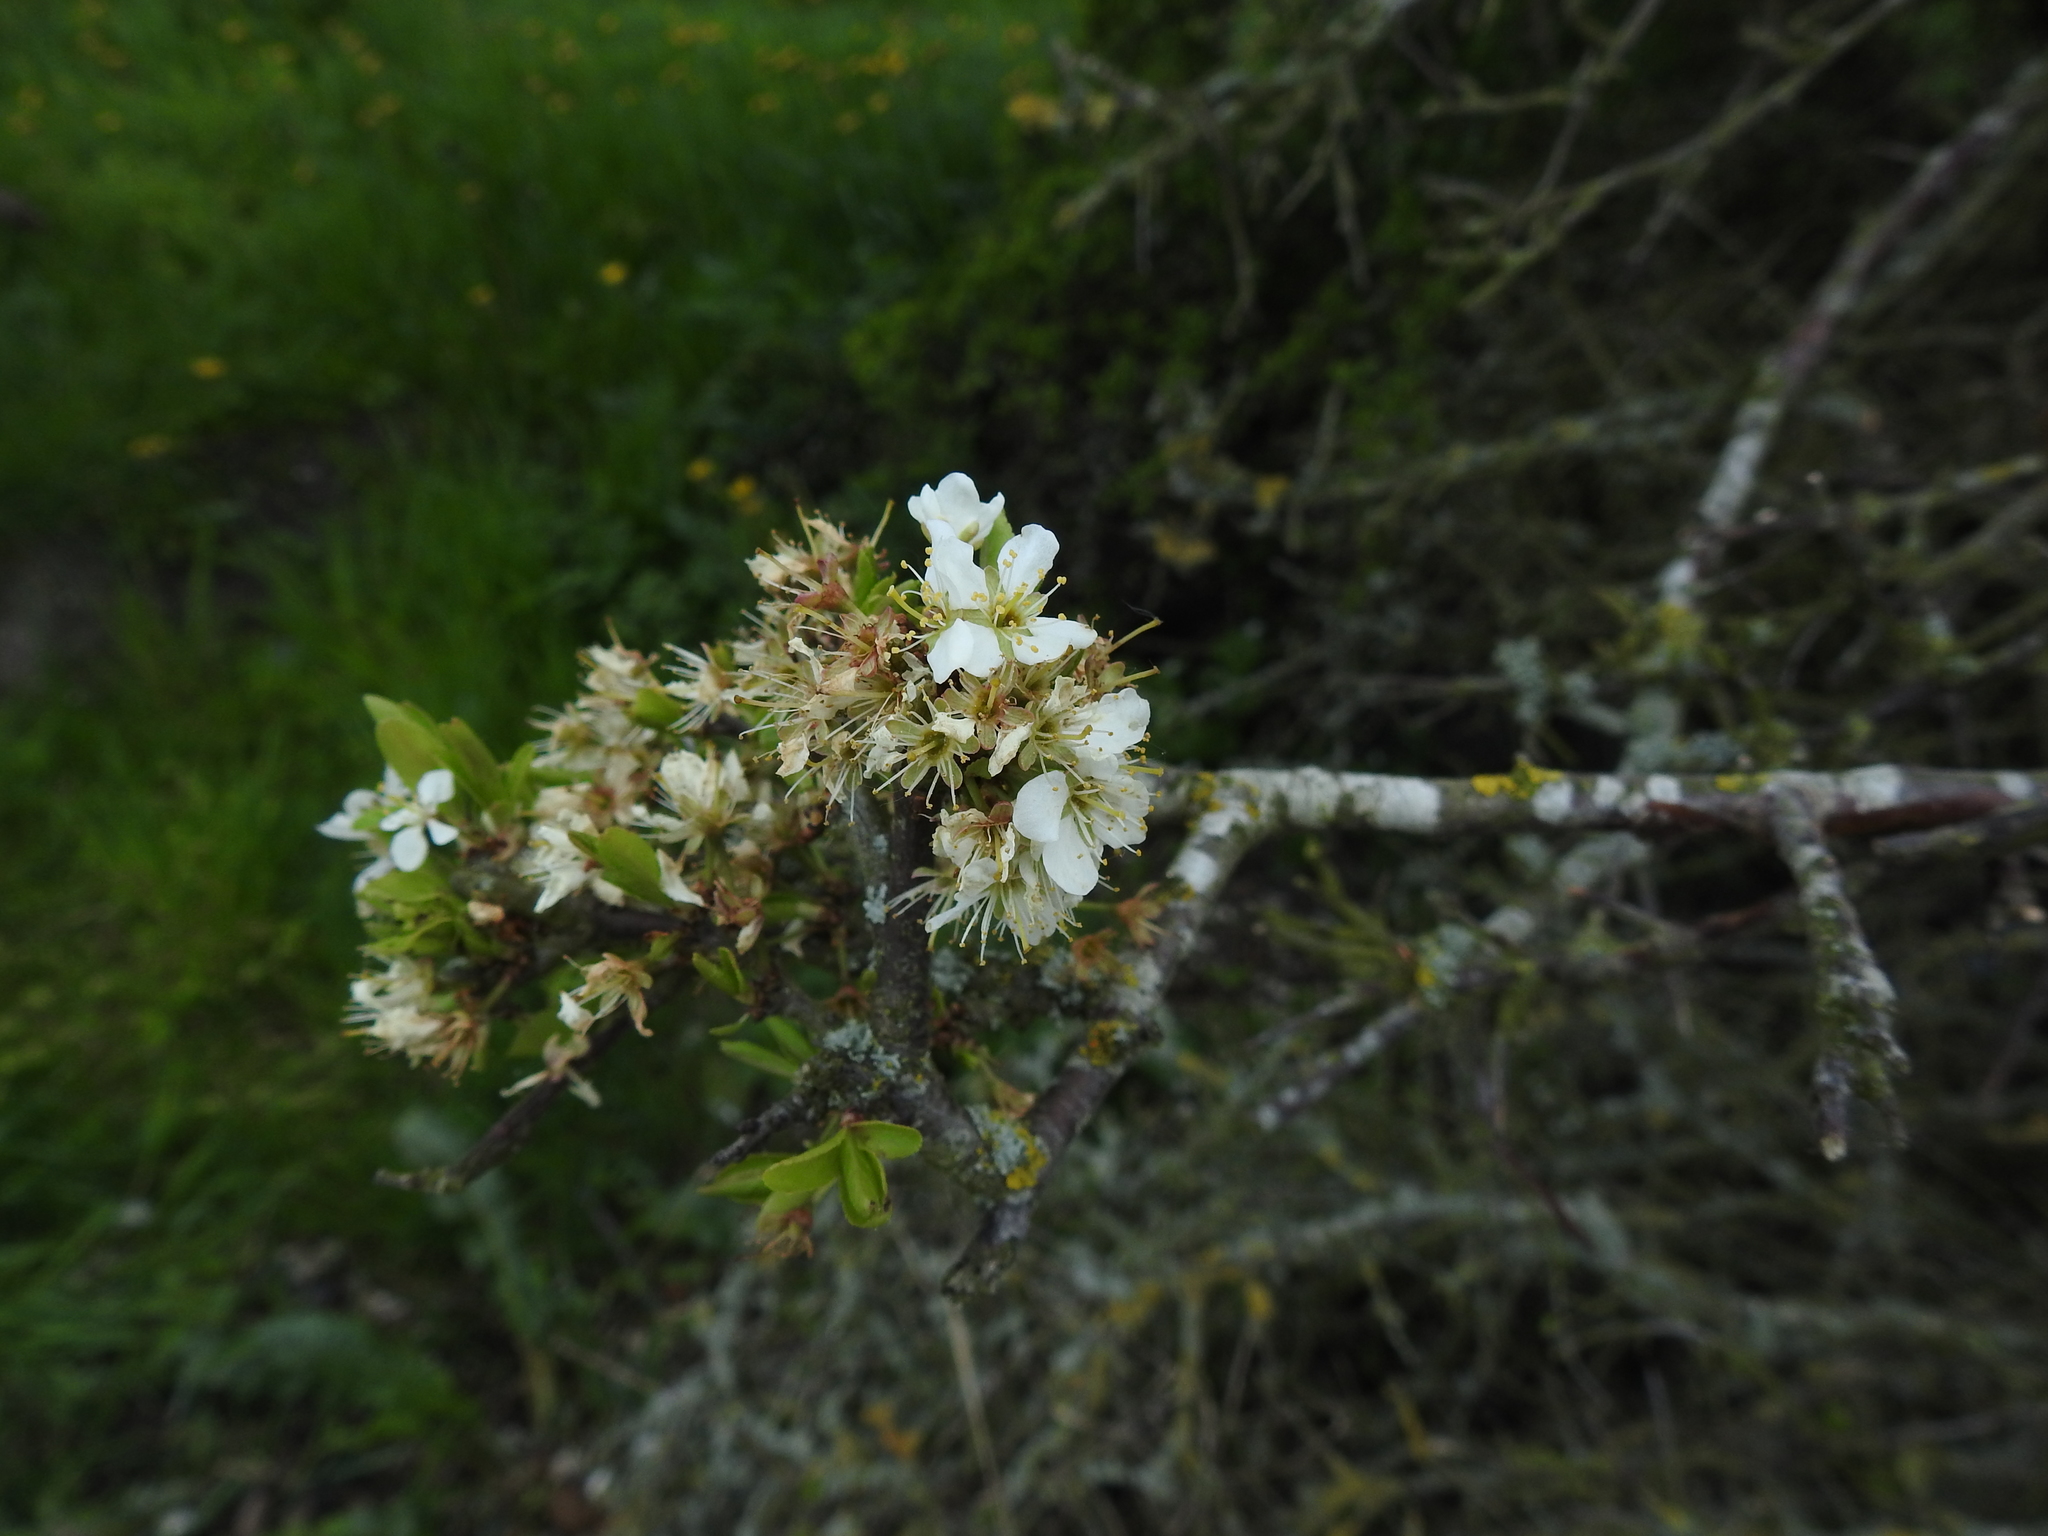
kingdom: Plantae
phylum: Tracheophyta
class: Magnoliopsida
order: Rosales
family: Rosaceae
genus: Prunus
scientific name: Prunus spinosa
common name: Blackthorn
